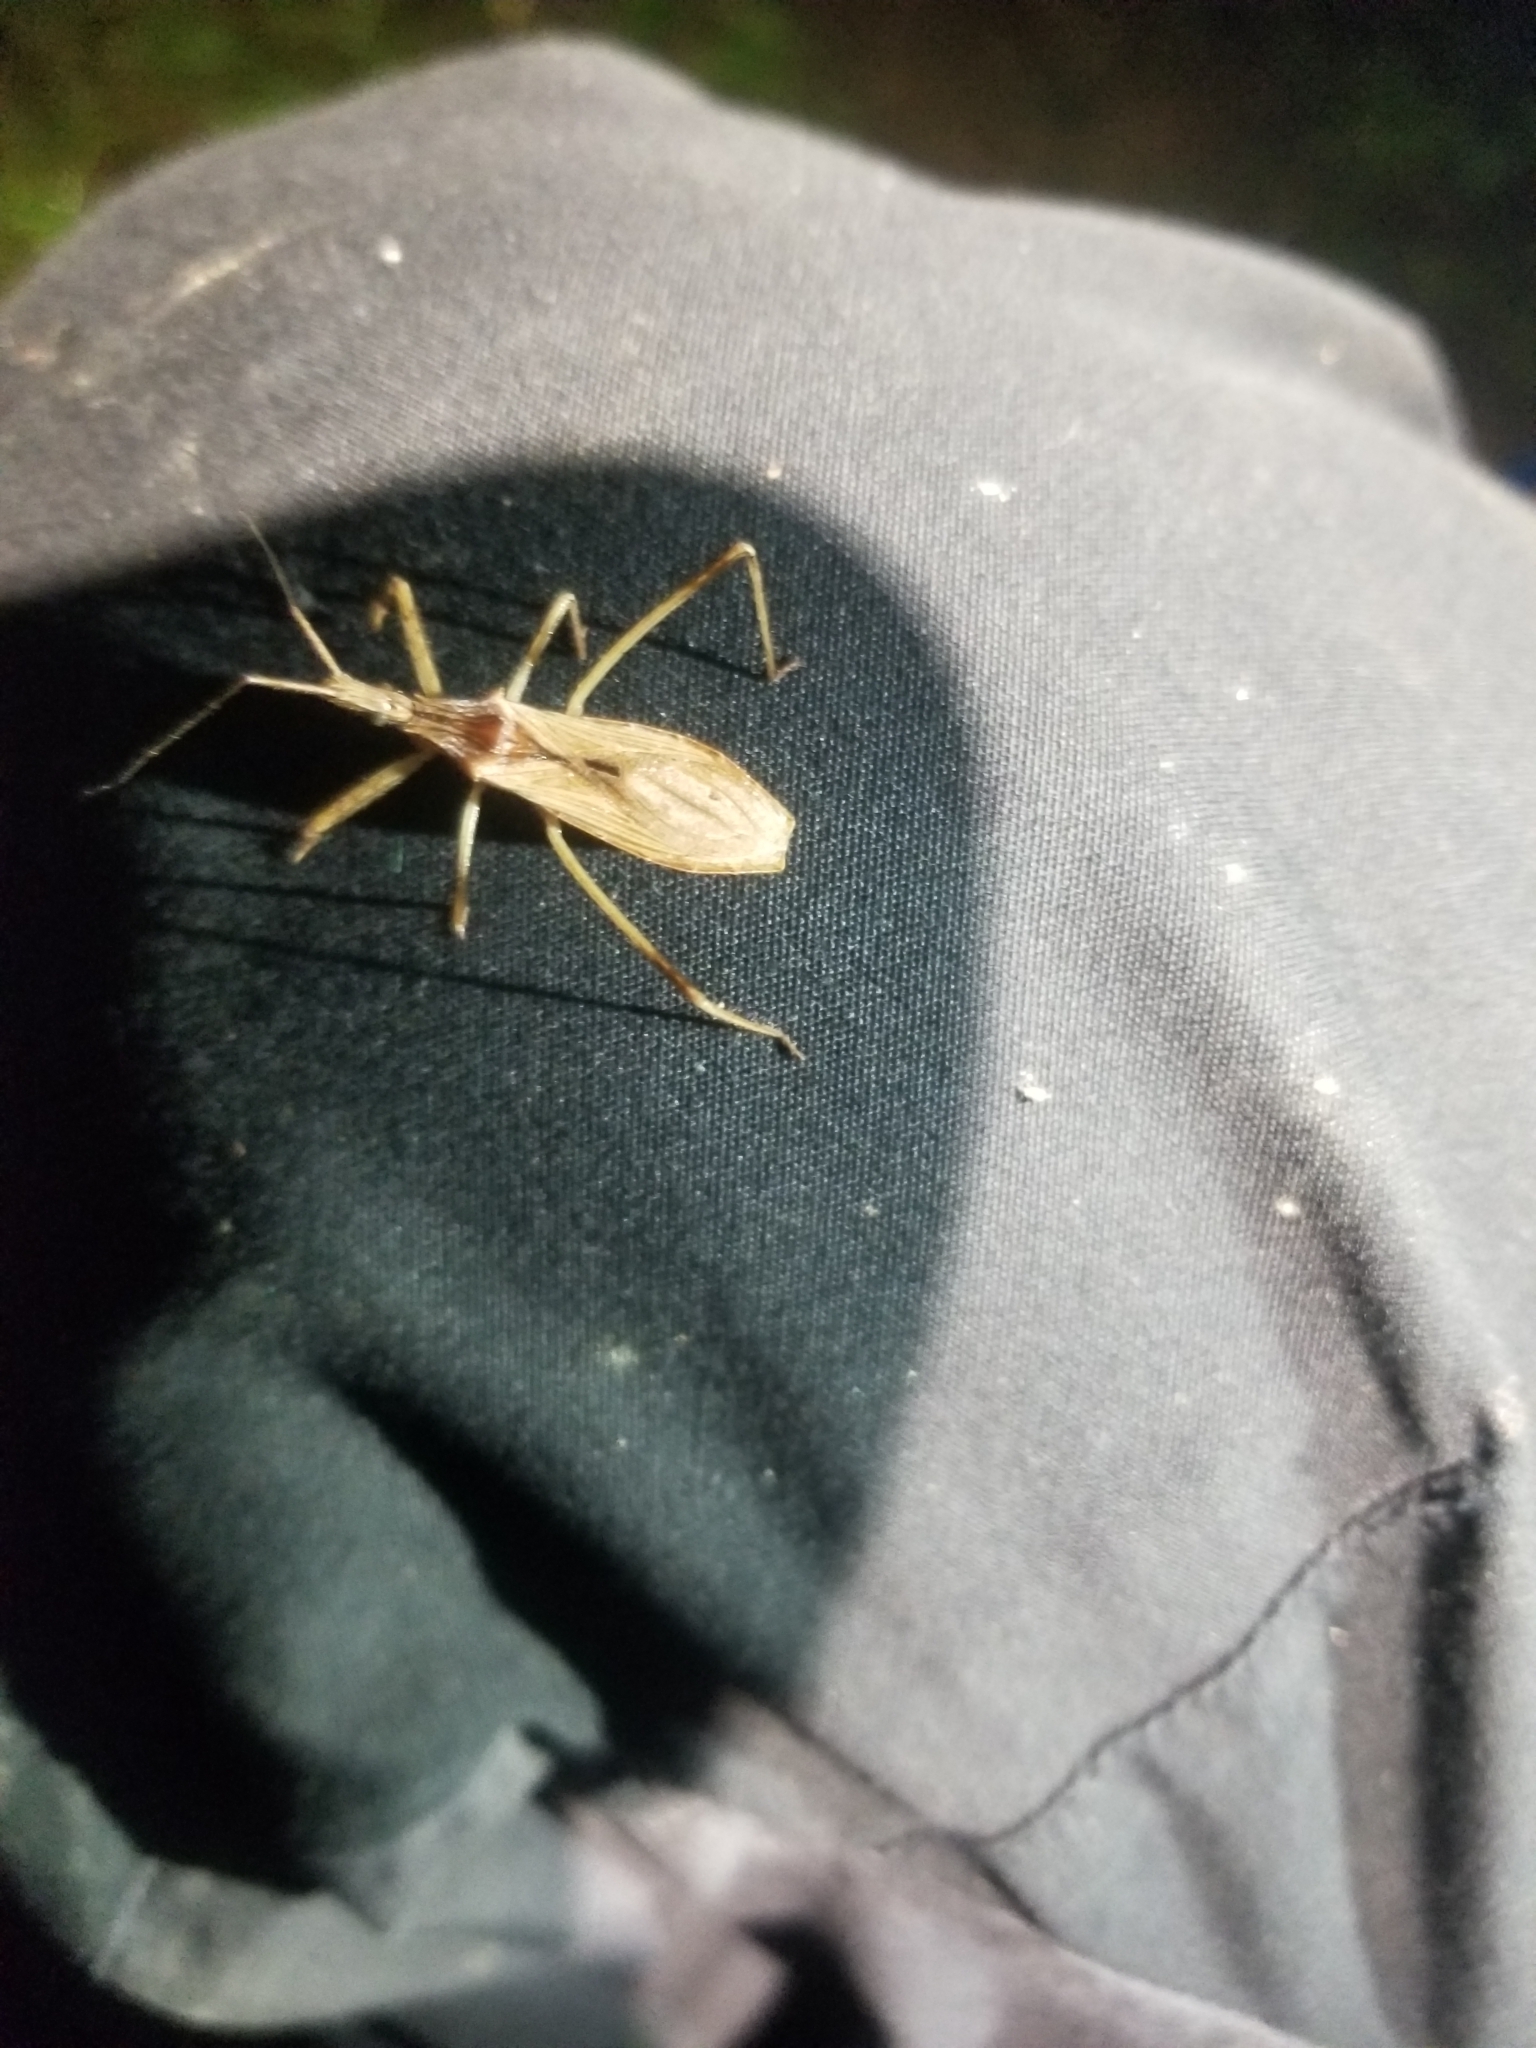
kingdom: Animalia
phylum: Arthropoda
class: Insecta
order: Hemiptera
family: Reduviidae
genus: Stenopoda
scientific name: Stenopoda spinulosa
